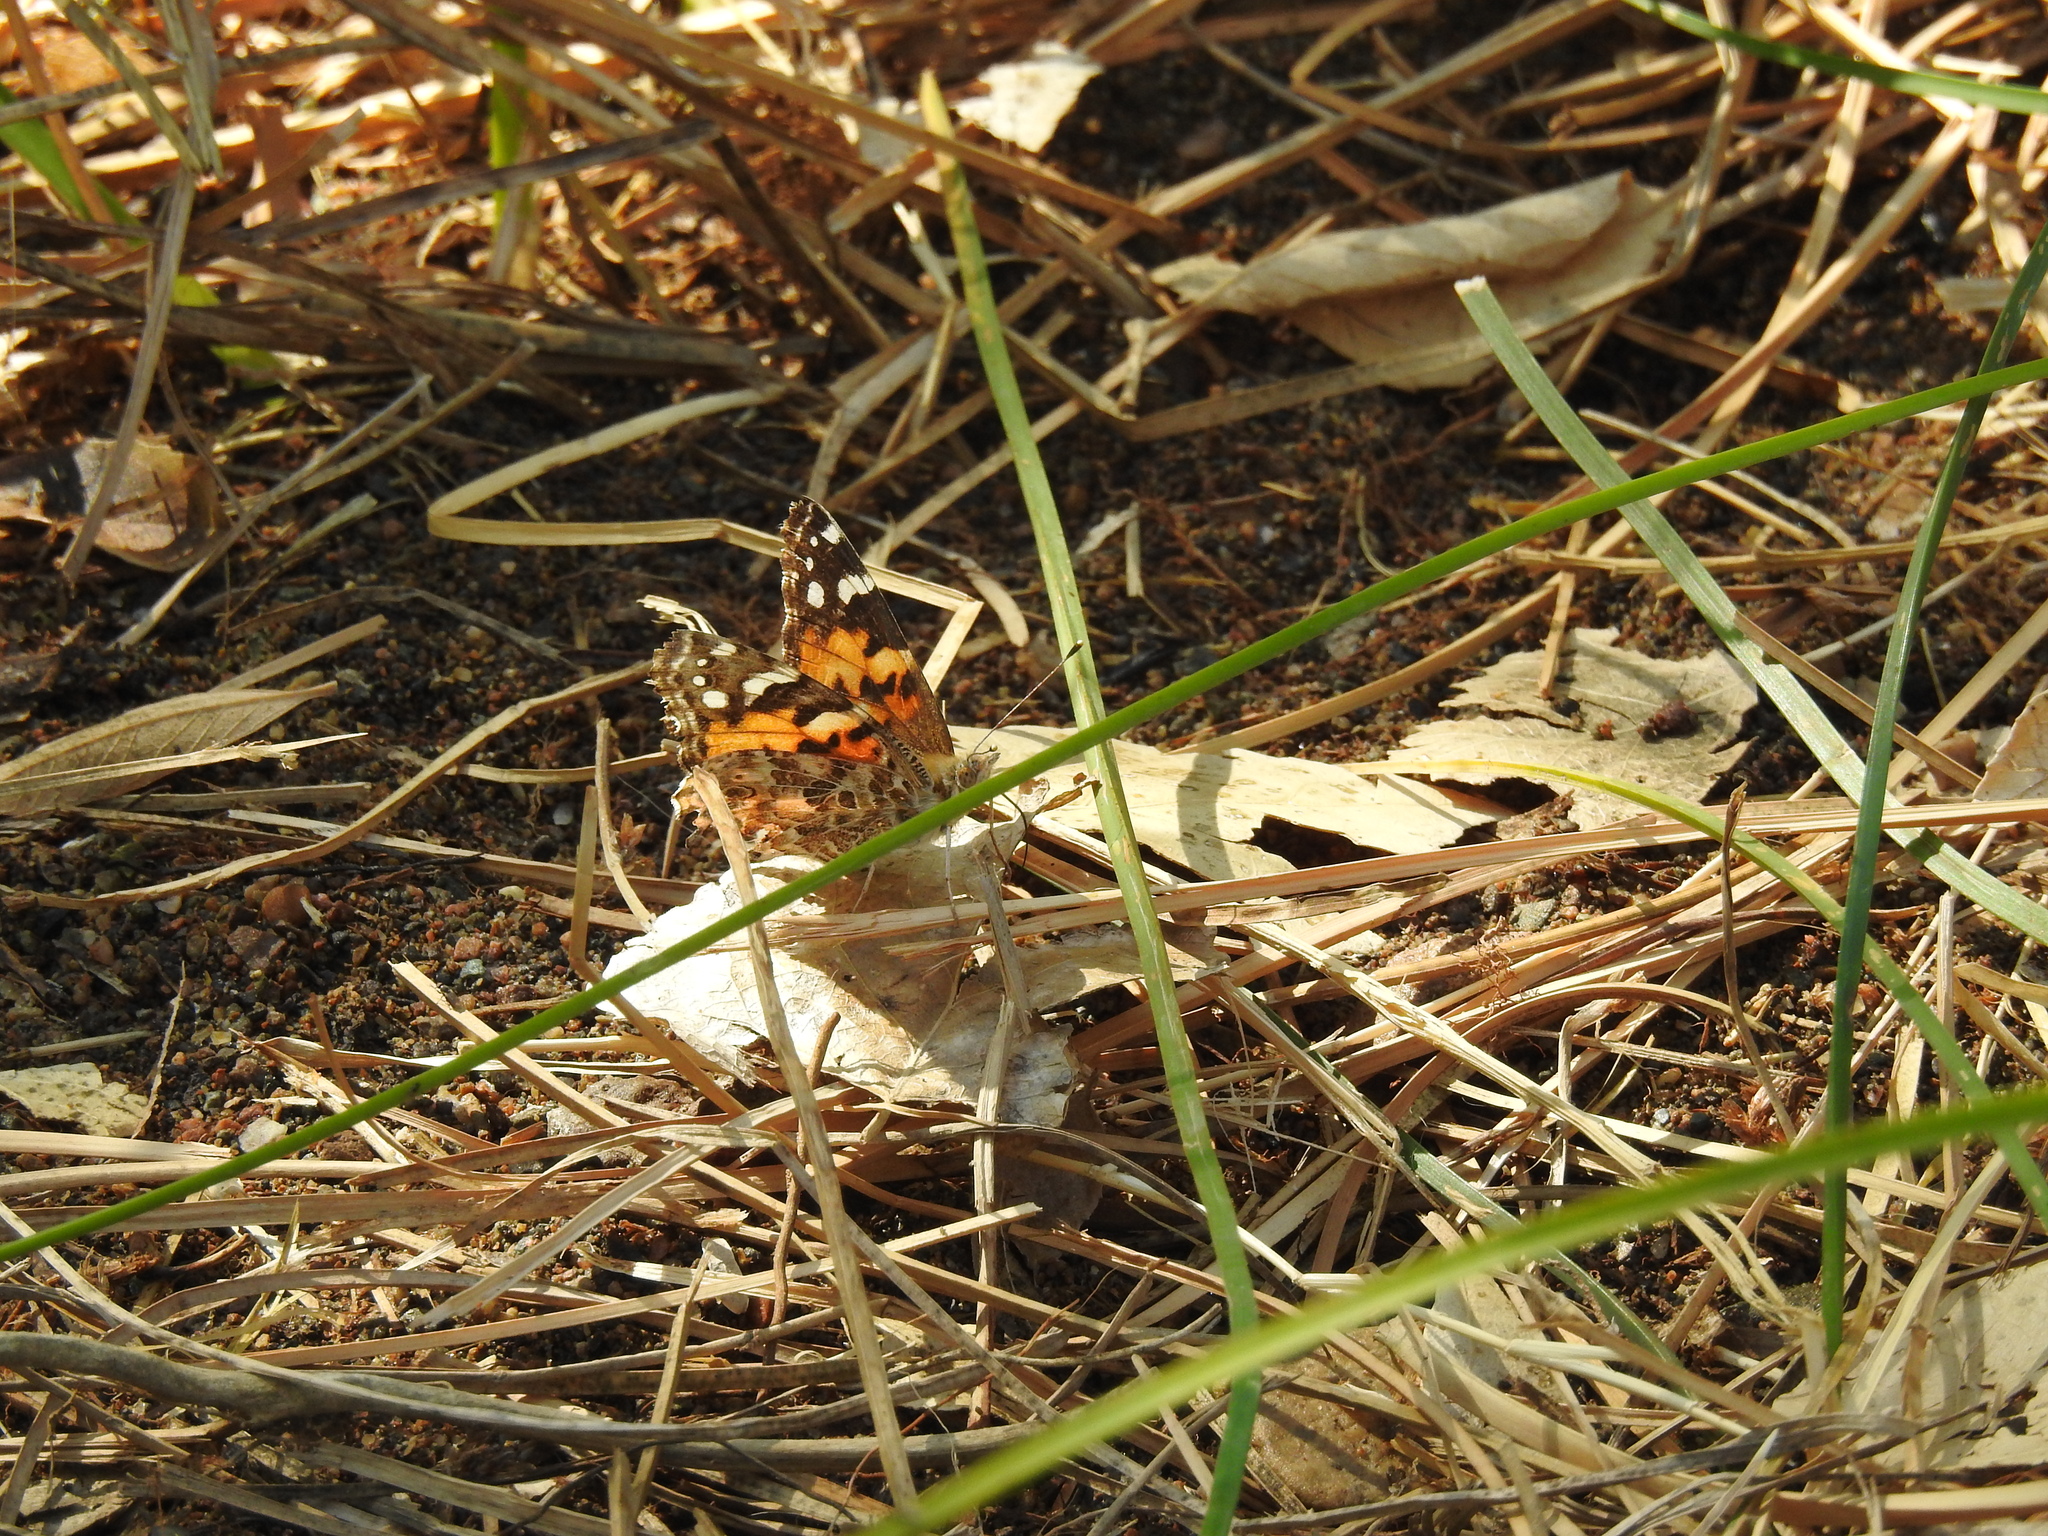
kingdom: Animalia
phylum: Arthropoda
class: Insecta
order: Lepidoptera
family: Nymphalidae
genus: Vanessa
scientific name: Vanessa cardui
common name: Painted lady
